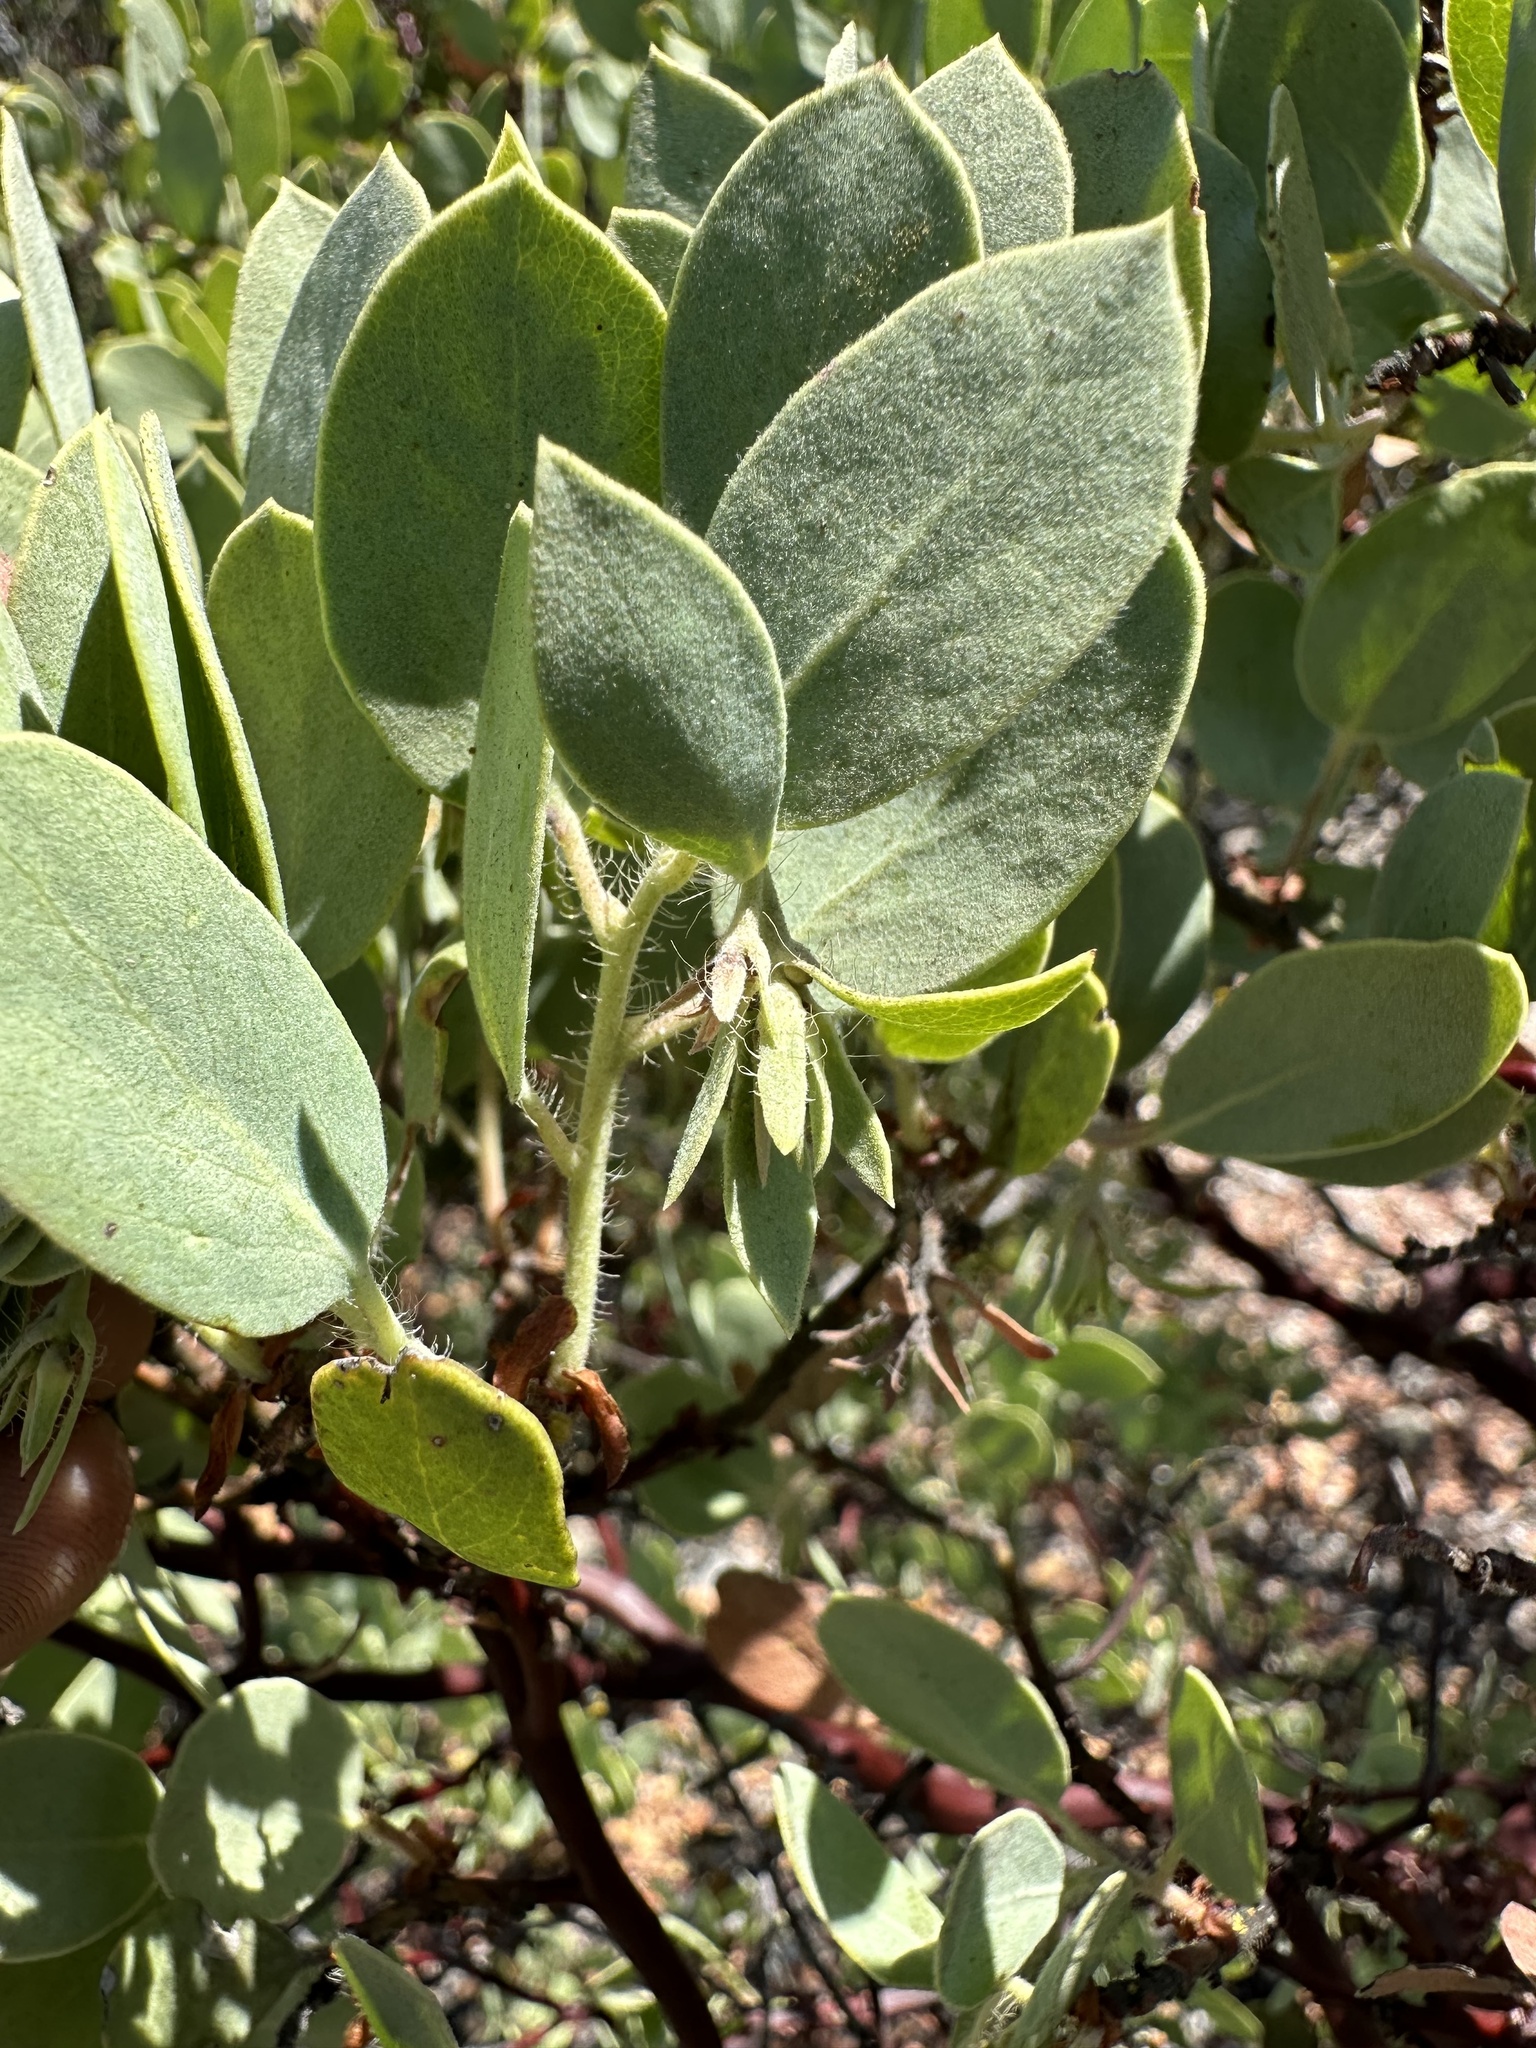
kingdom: Plantae
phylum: Tracheophyta
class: Magnoliopsida
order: Ericales
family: Ericaceae
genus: Arctostaphylos
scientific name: Arctostaphylos pilosula
